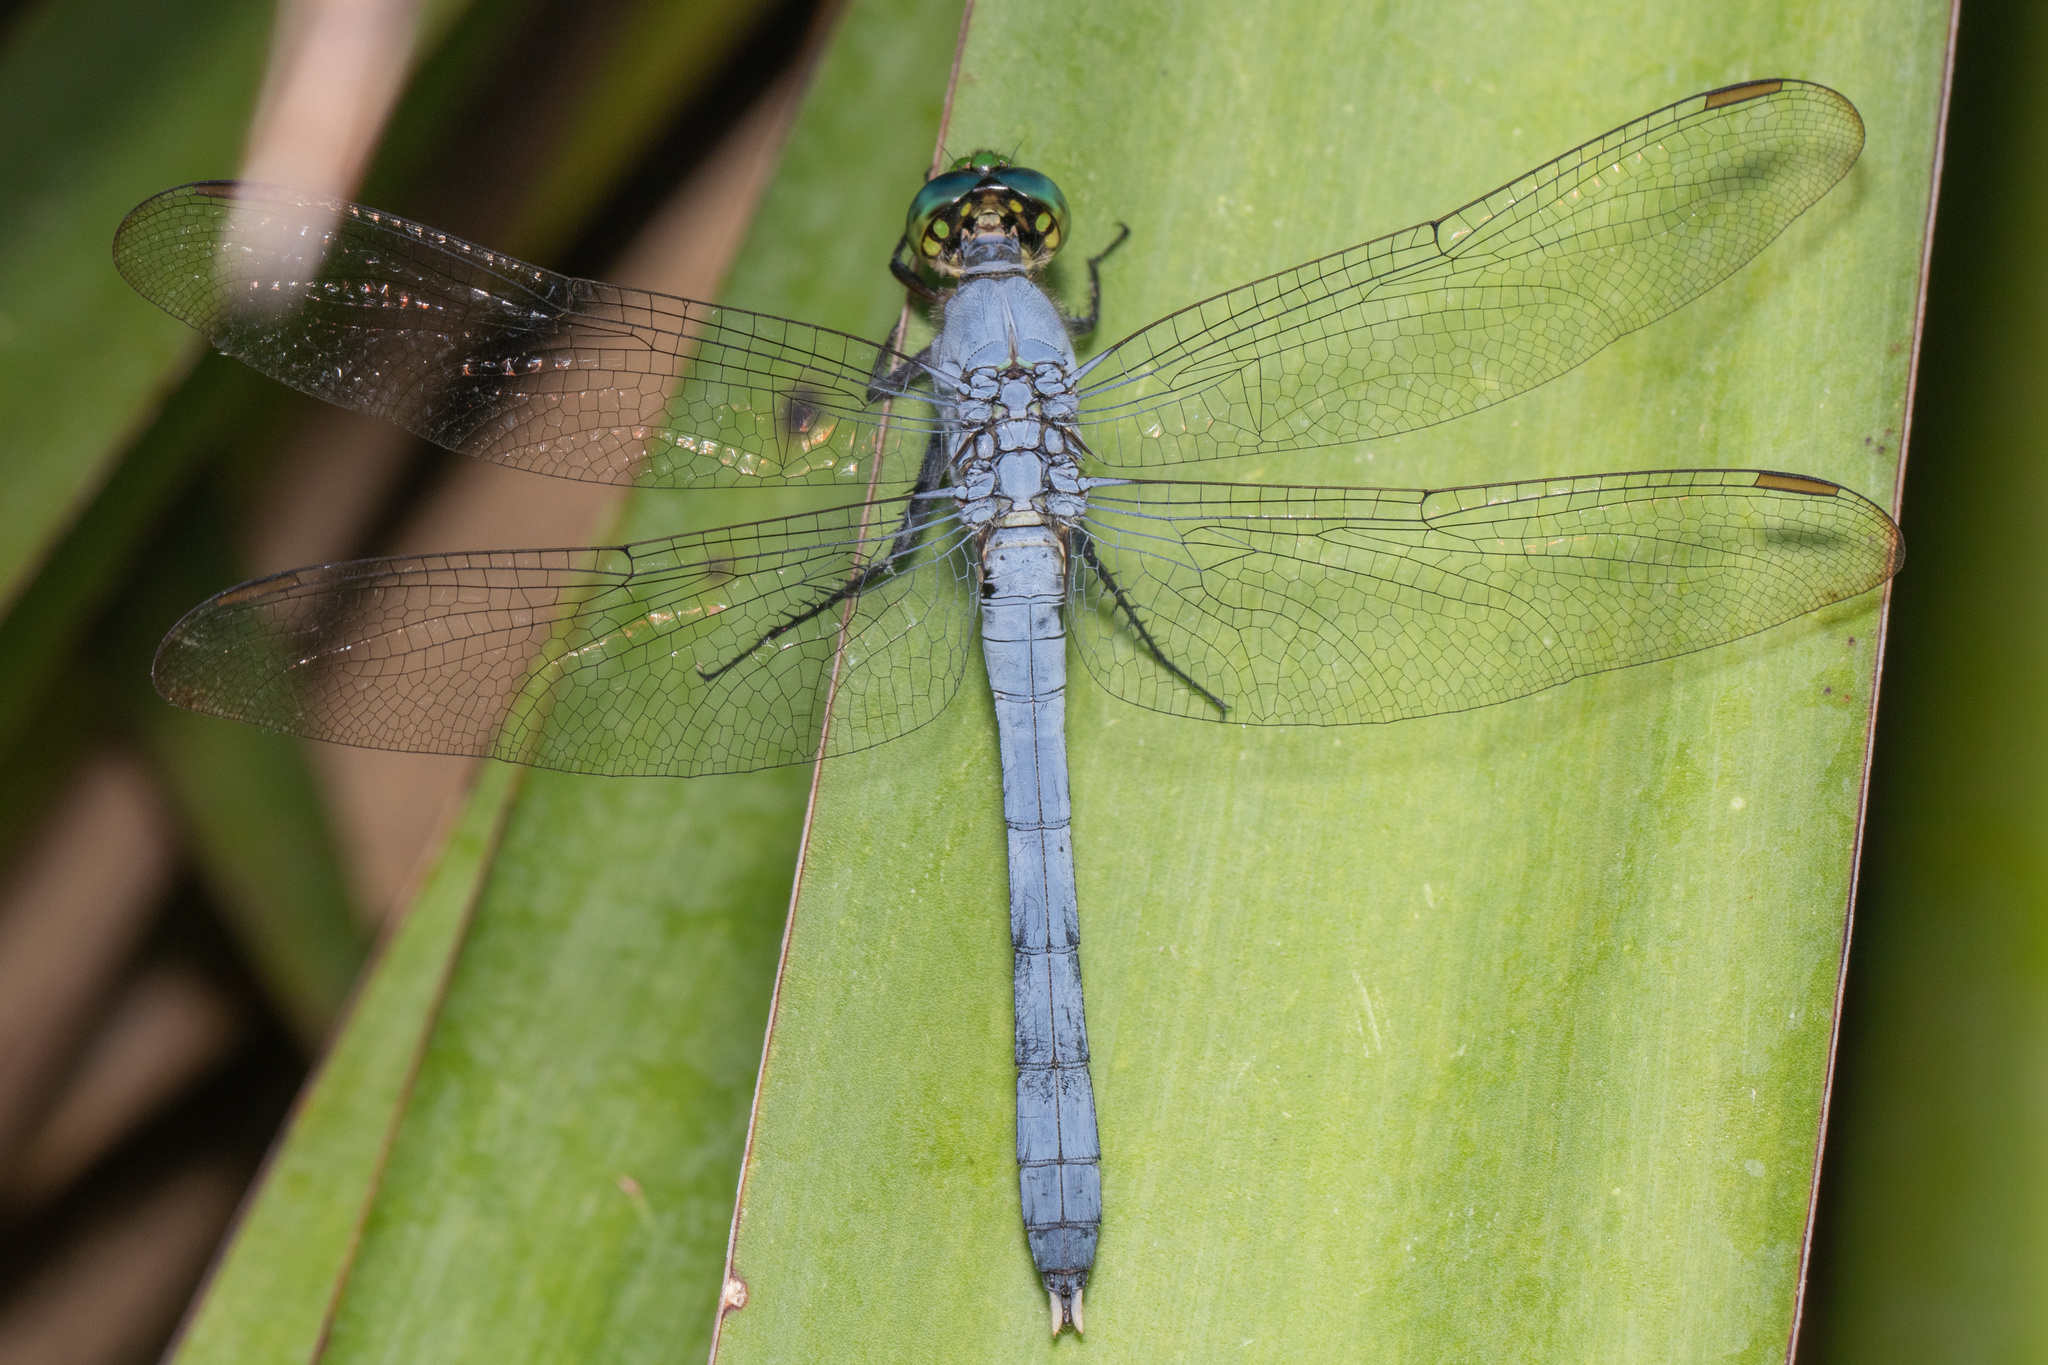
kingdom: Animalia
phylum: Arthropoda
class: Insecta
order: Odonata
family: Libellulidae
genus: Erythemis
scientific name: Erythemis simplicicollis
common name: Eastern pondhawk
